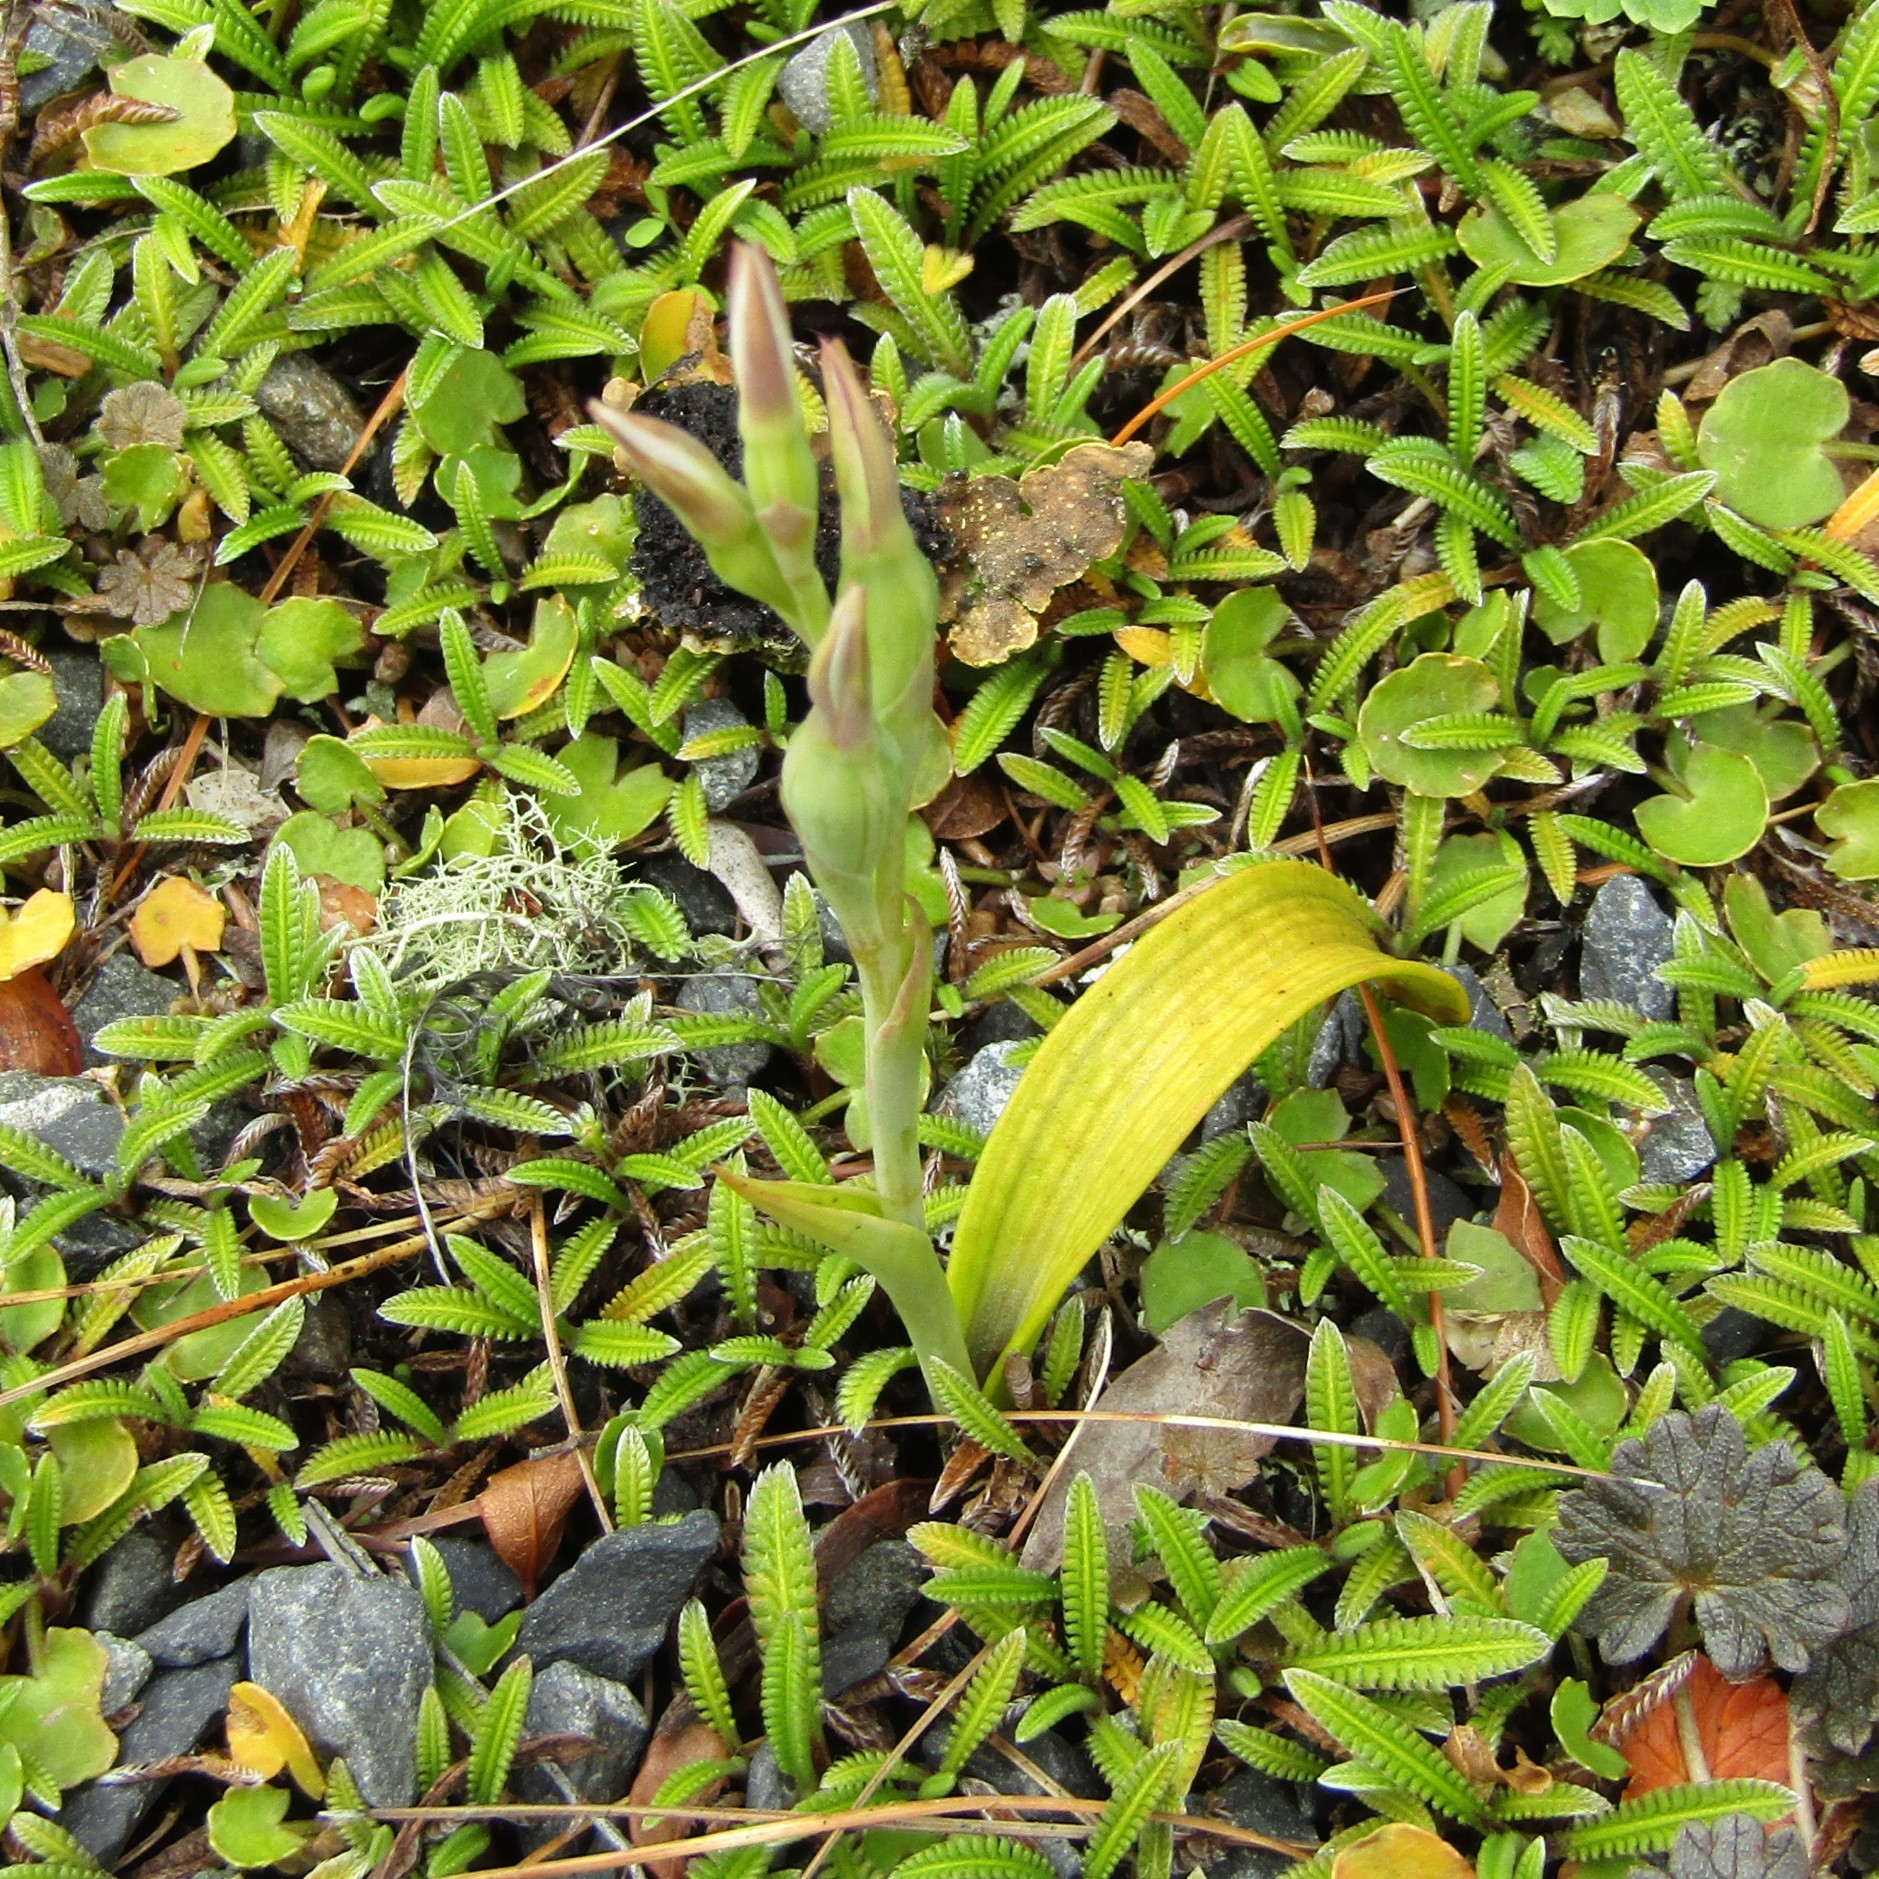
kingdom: Plantae
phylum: Tracheophyta
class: Liliopsida
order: Asparagales
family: Orchidaceae
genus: Thelymitra
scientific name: Thelymitra longifolia
